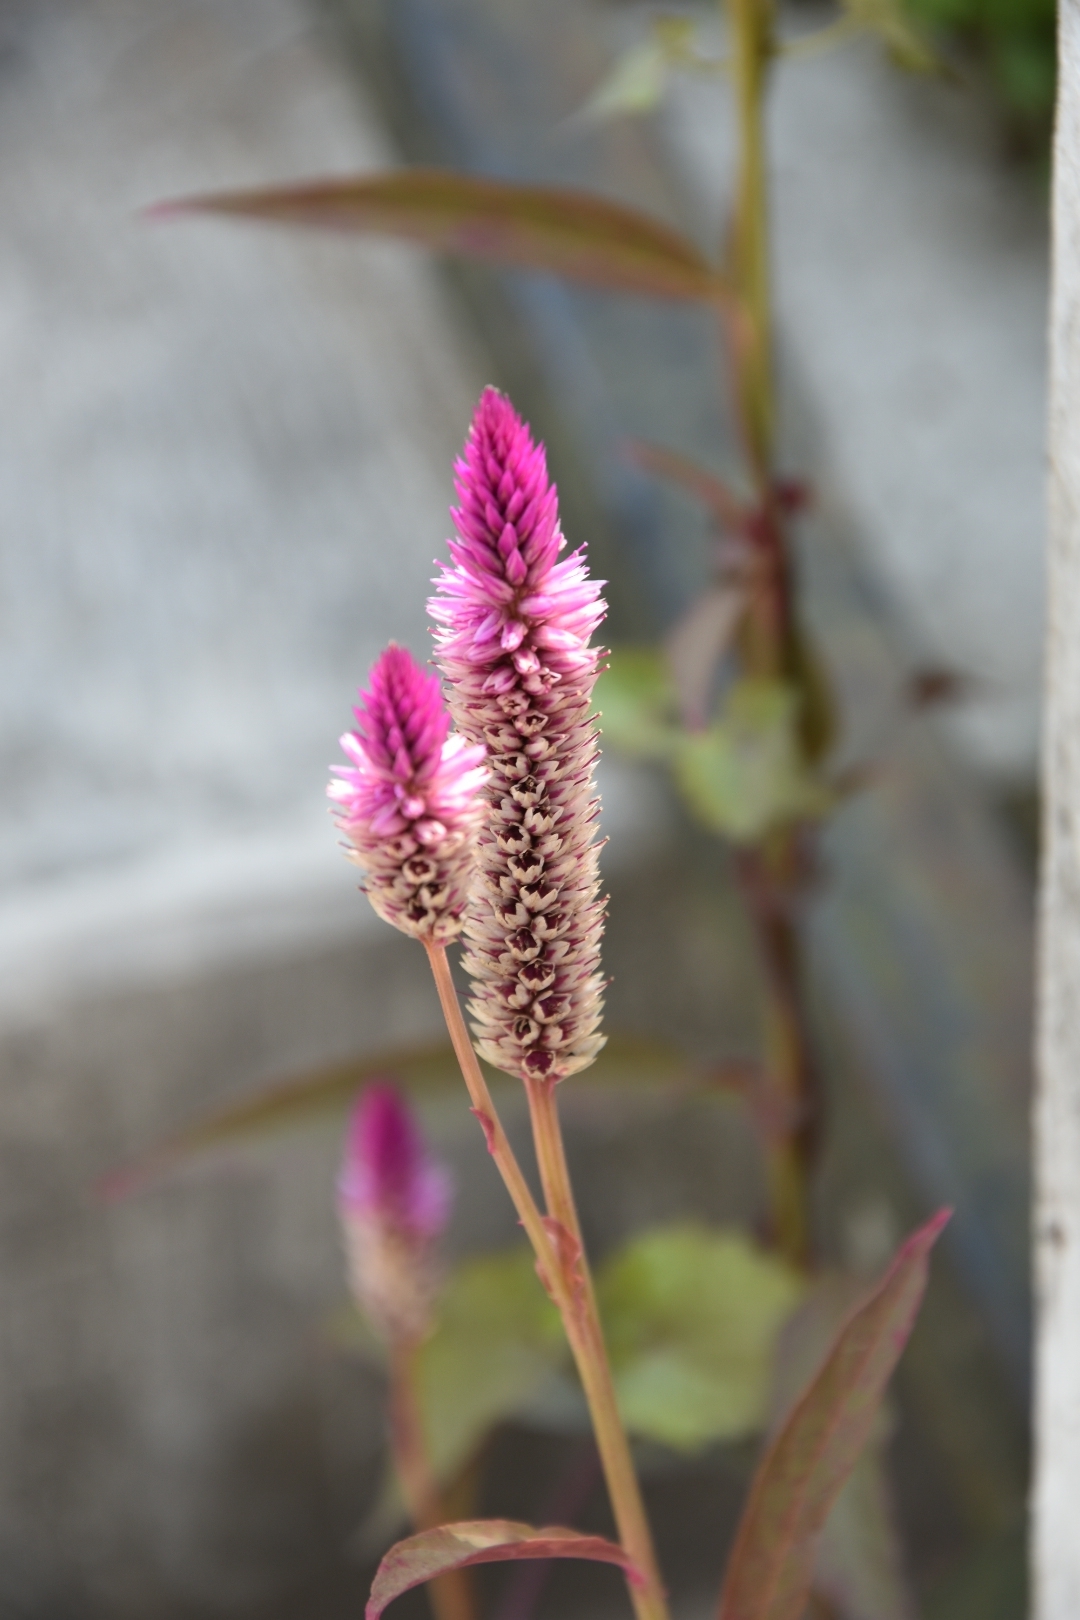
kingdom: Plantae
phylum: Tracheophyta
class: Magnoliopsida
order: Caryophyllales
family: Amaranthaceae
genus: Celosia
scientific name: Celosia argentea
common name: Feather cockscomb
